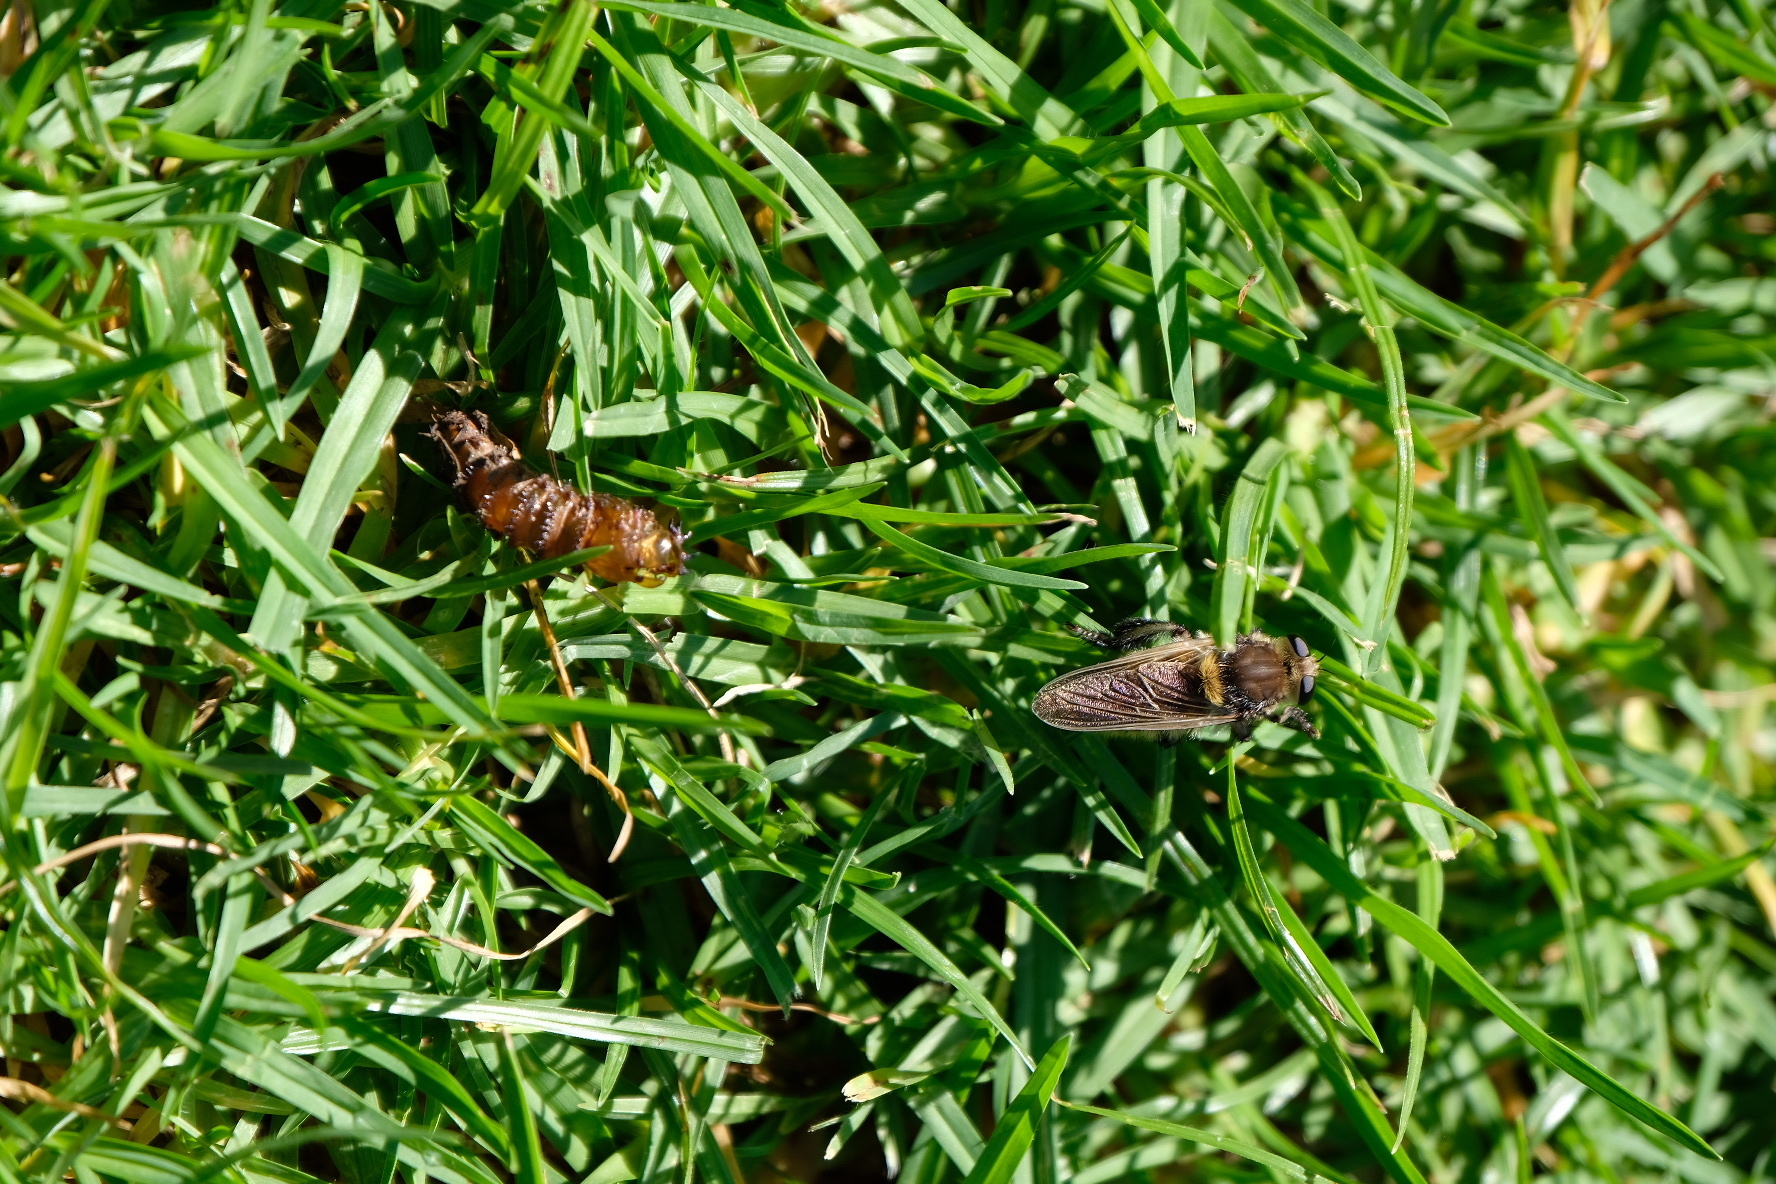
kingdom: Animalia
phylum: Arthropoda
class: Insecta
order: Diptera
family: Asilidae
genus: Mallophora
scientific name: Mallophora fautrix
